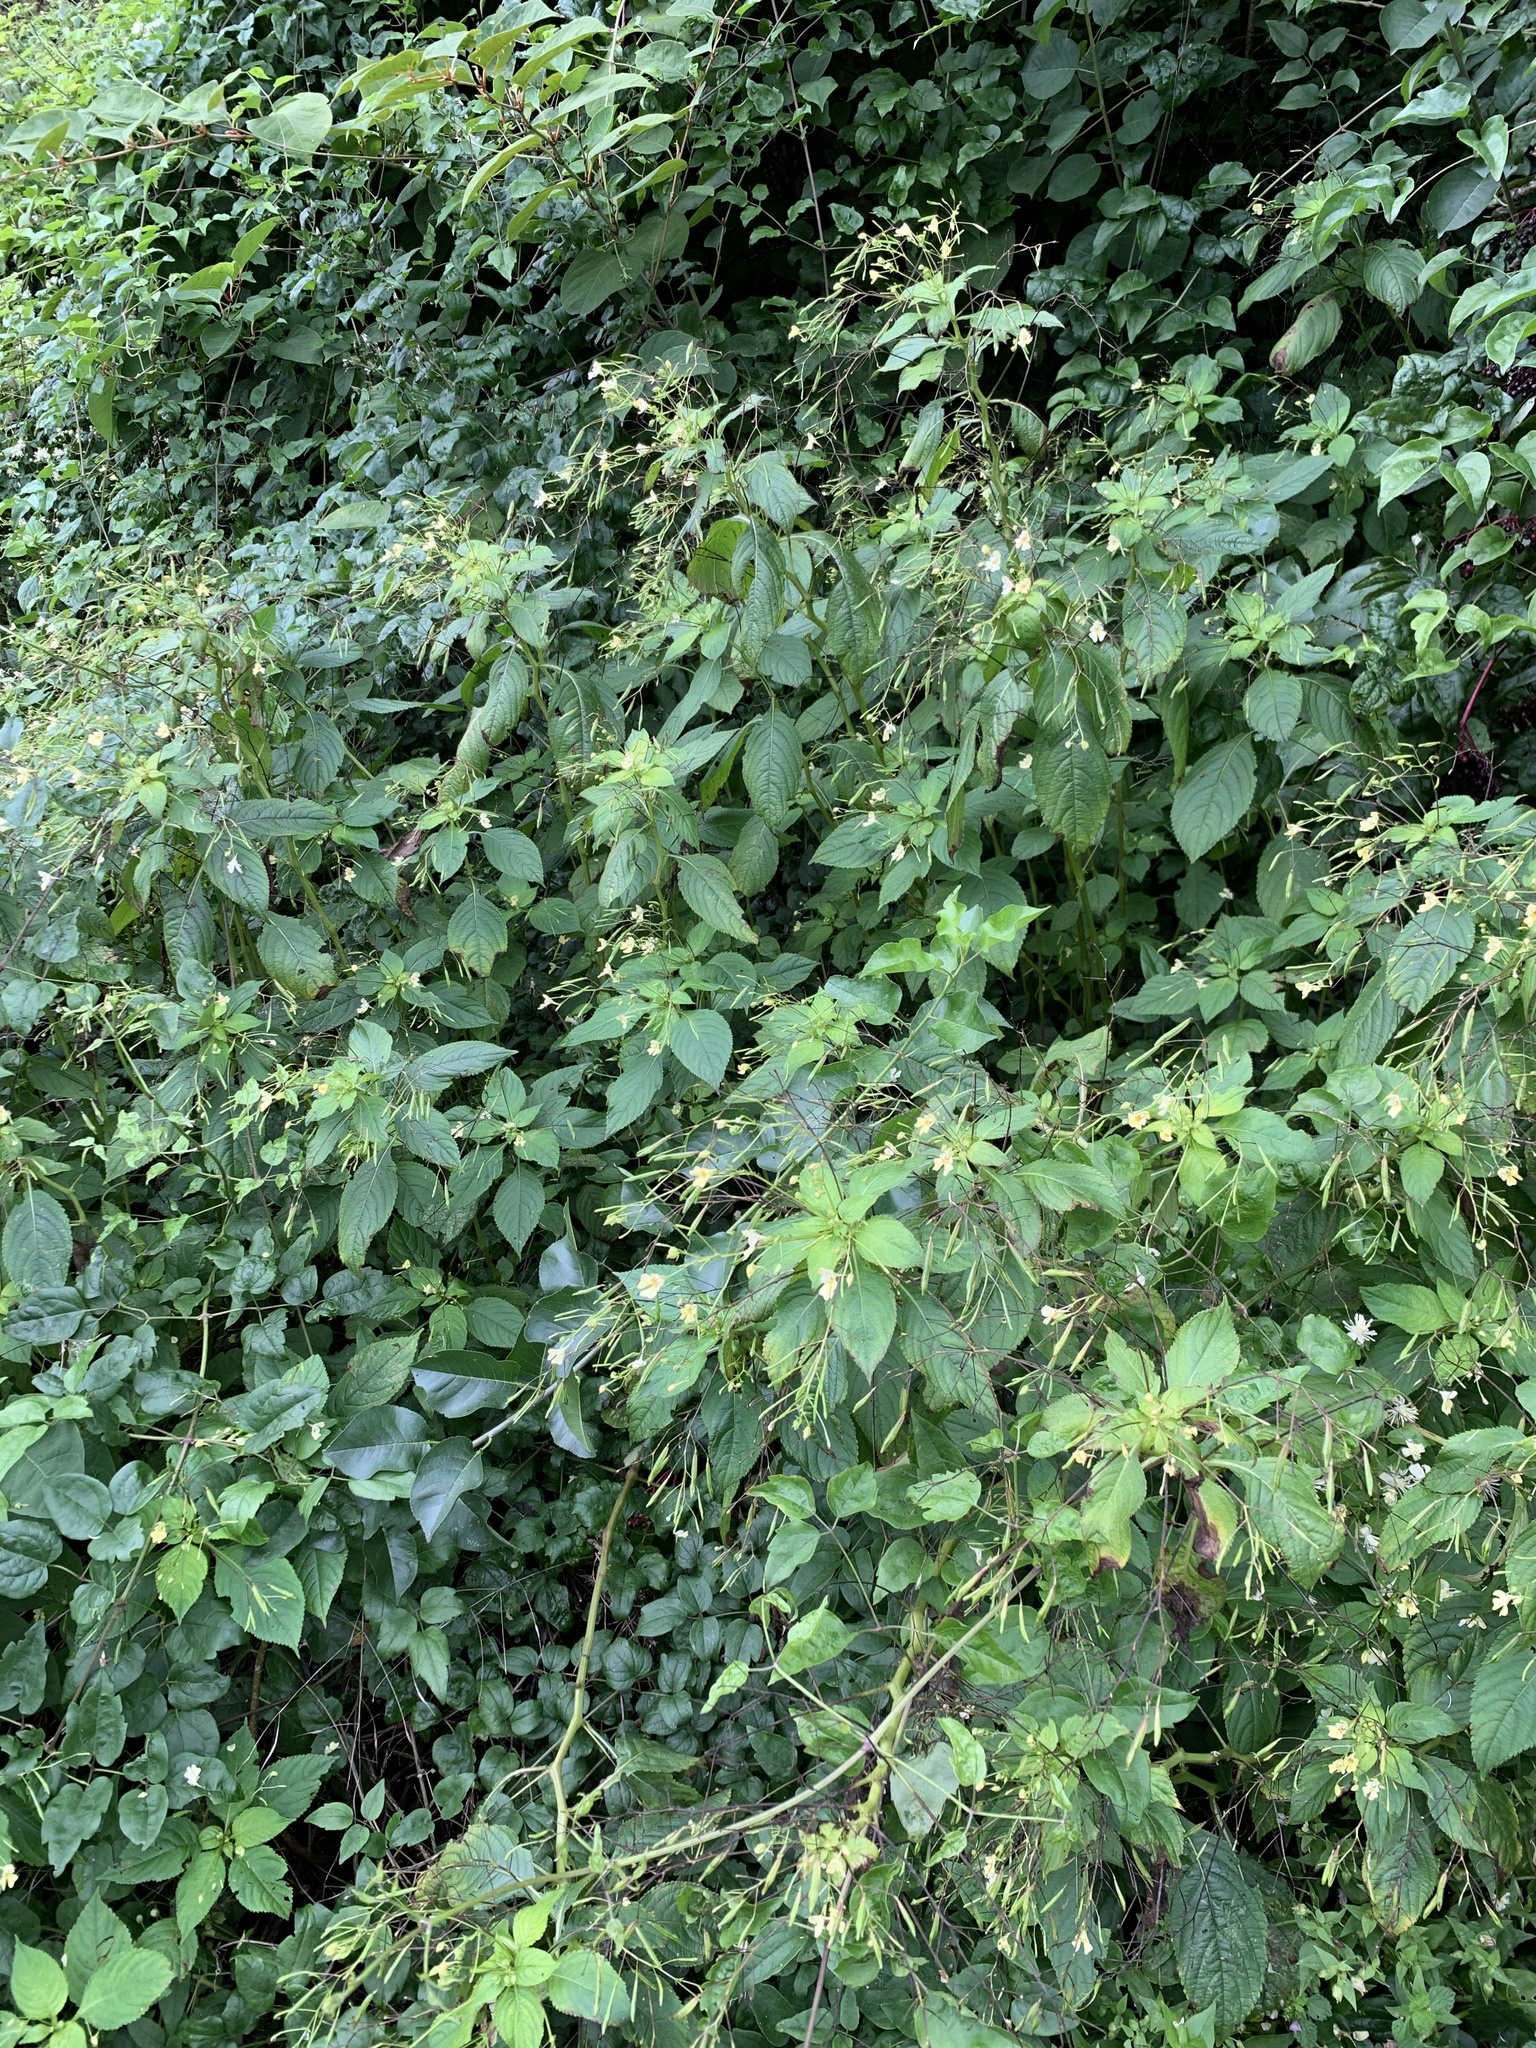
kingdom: Plantae
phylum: Tracheophyta
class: Magnoliopsida
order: Ericales
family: Balsaminaceae
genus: Impatiens
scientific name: Impatiens parviflora
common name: Small balsam
